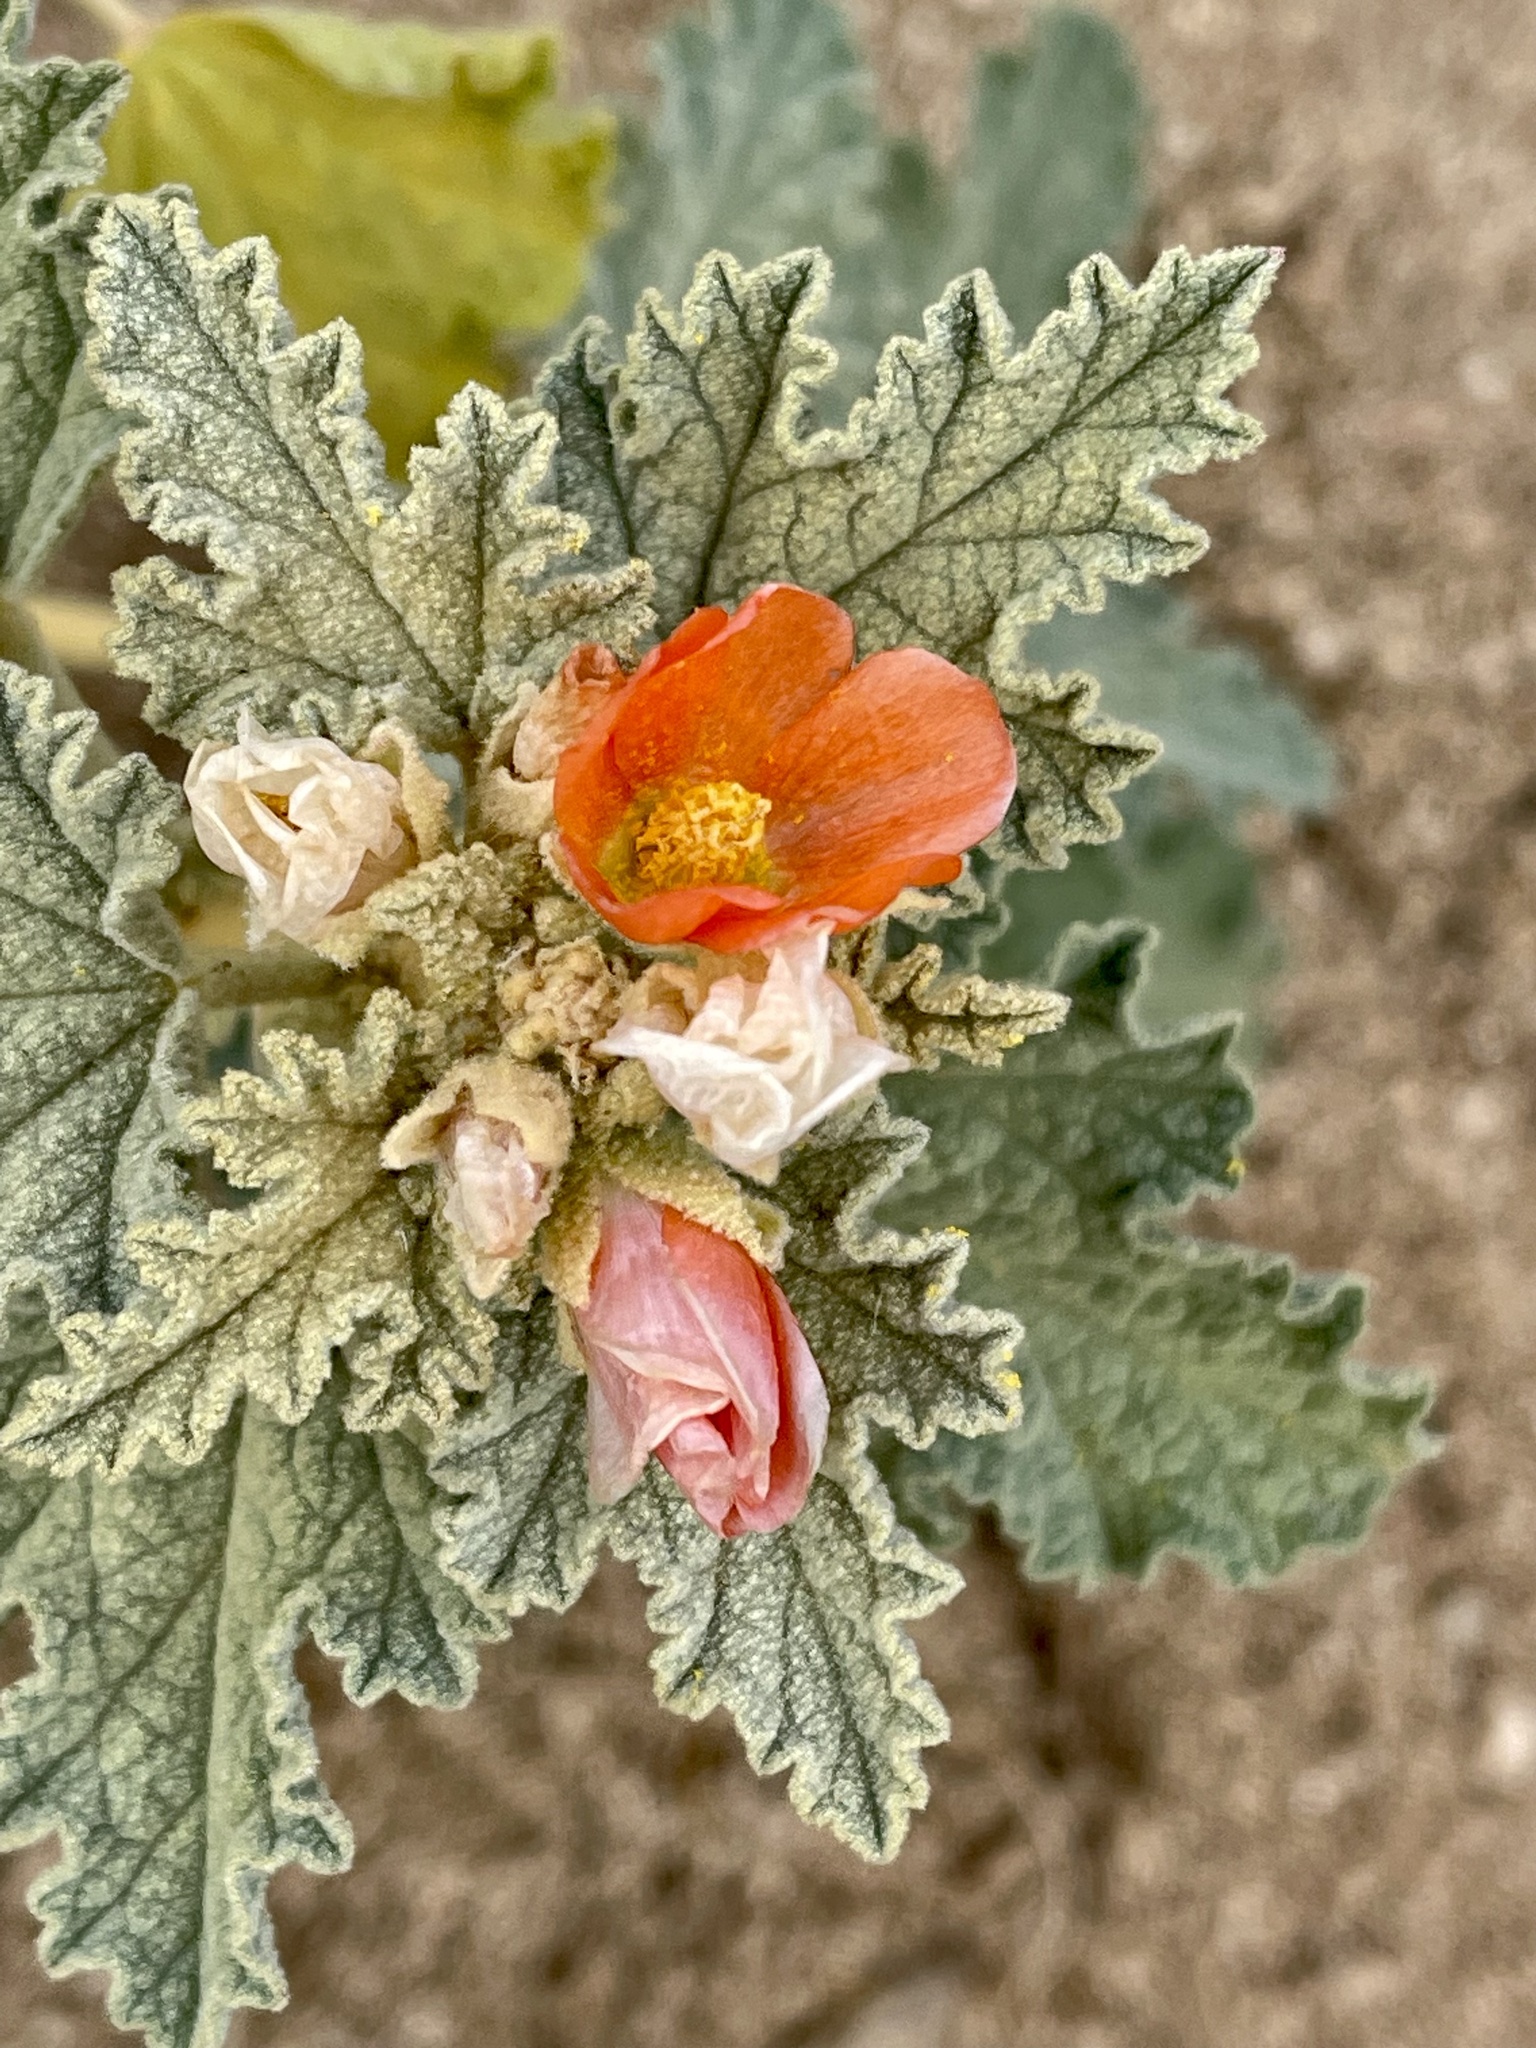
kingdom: Plantae
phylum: Tracheophyta
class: Magnoliopsida
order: Malvales
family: Malvaceae
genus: Sphaeralcea
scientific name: Sphaeralcea ambigua
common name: Apricot globe-mallow
